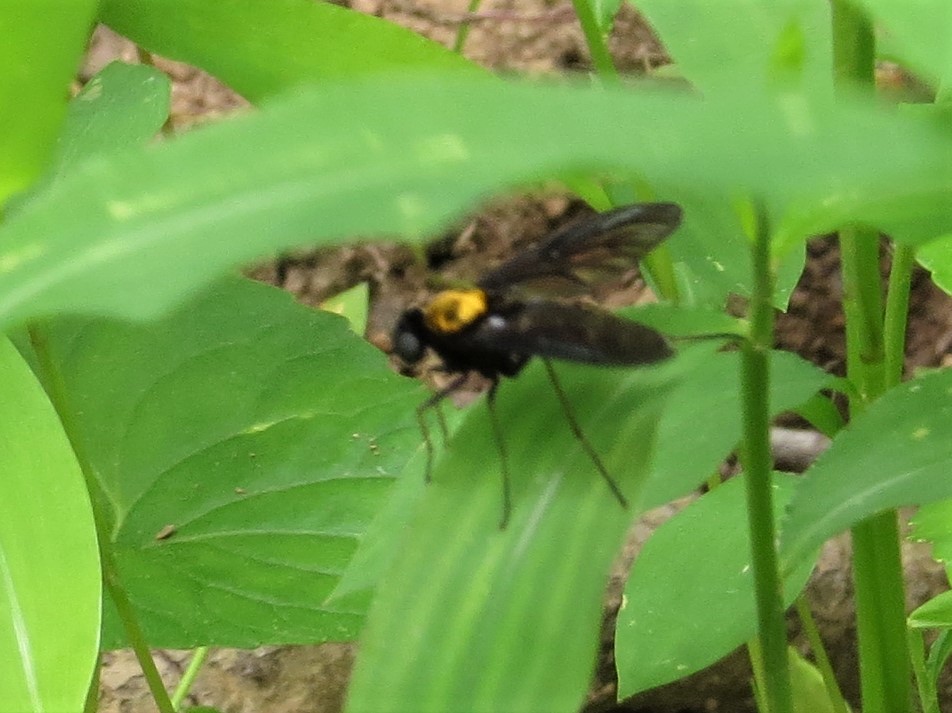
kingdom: Animalia
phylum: Arthropoda
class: Insecta
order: Diptera
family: Rhagionidae
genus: Chrysopilus
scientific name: Chrysopilus thoracicus
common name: Golden-backed snipe fly
